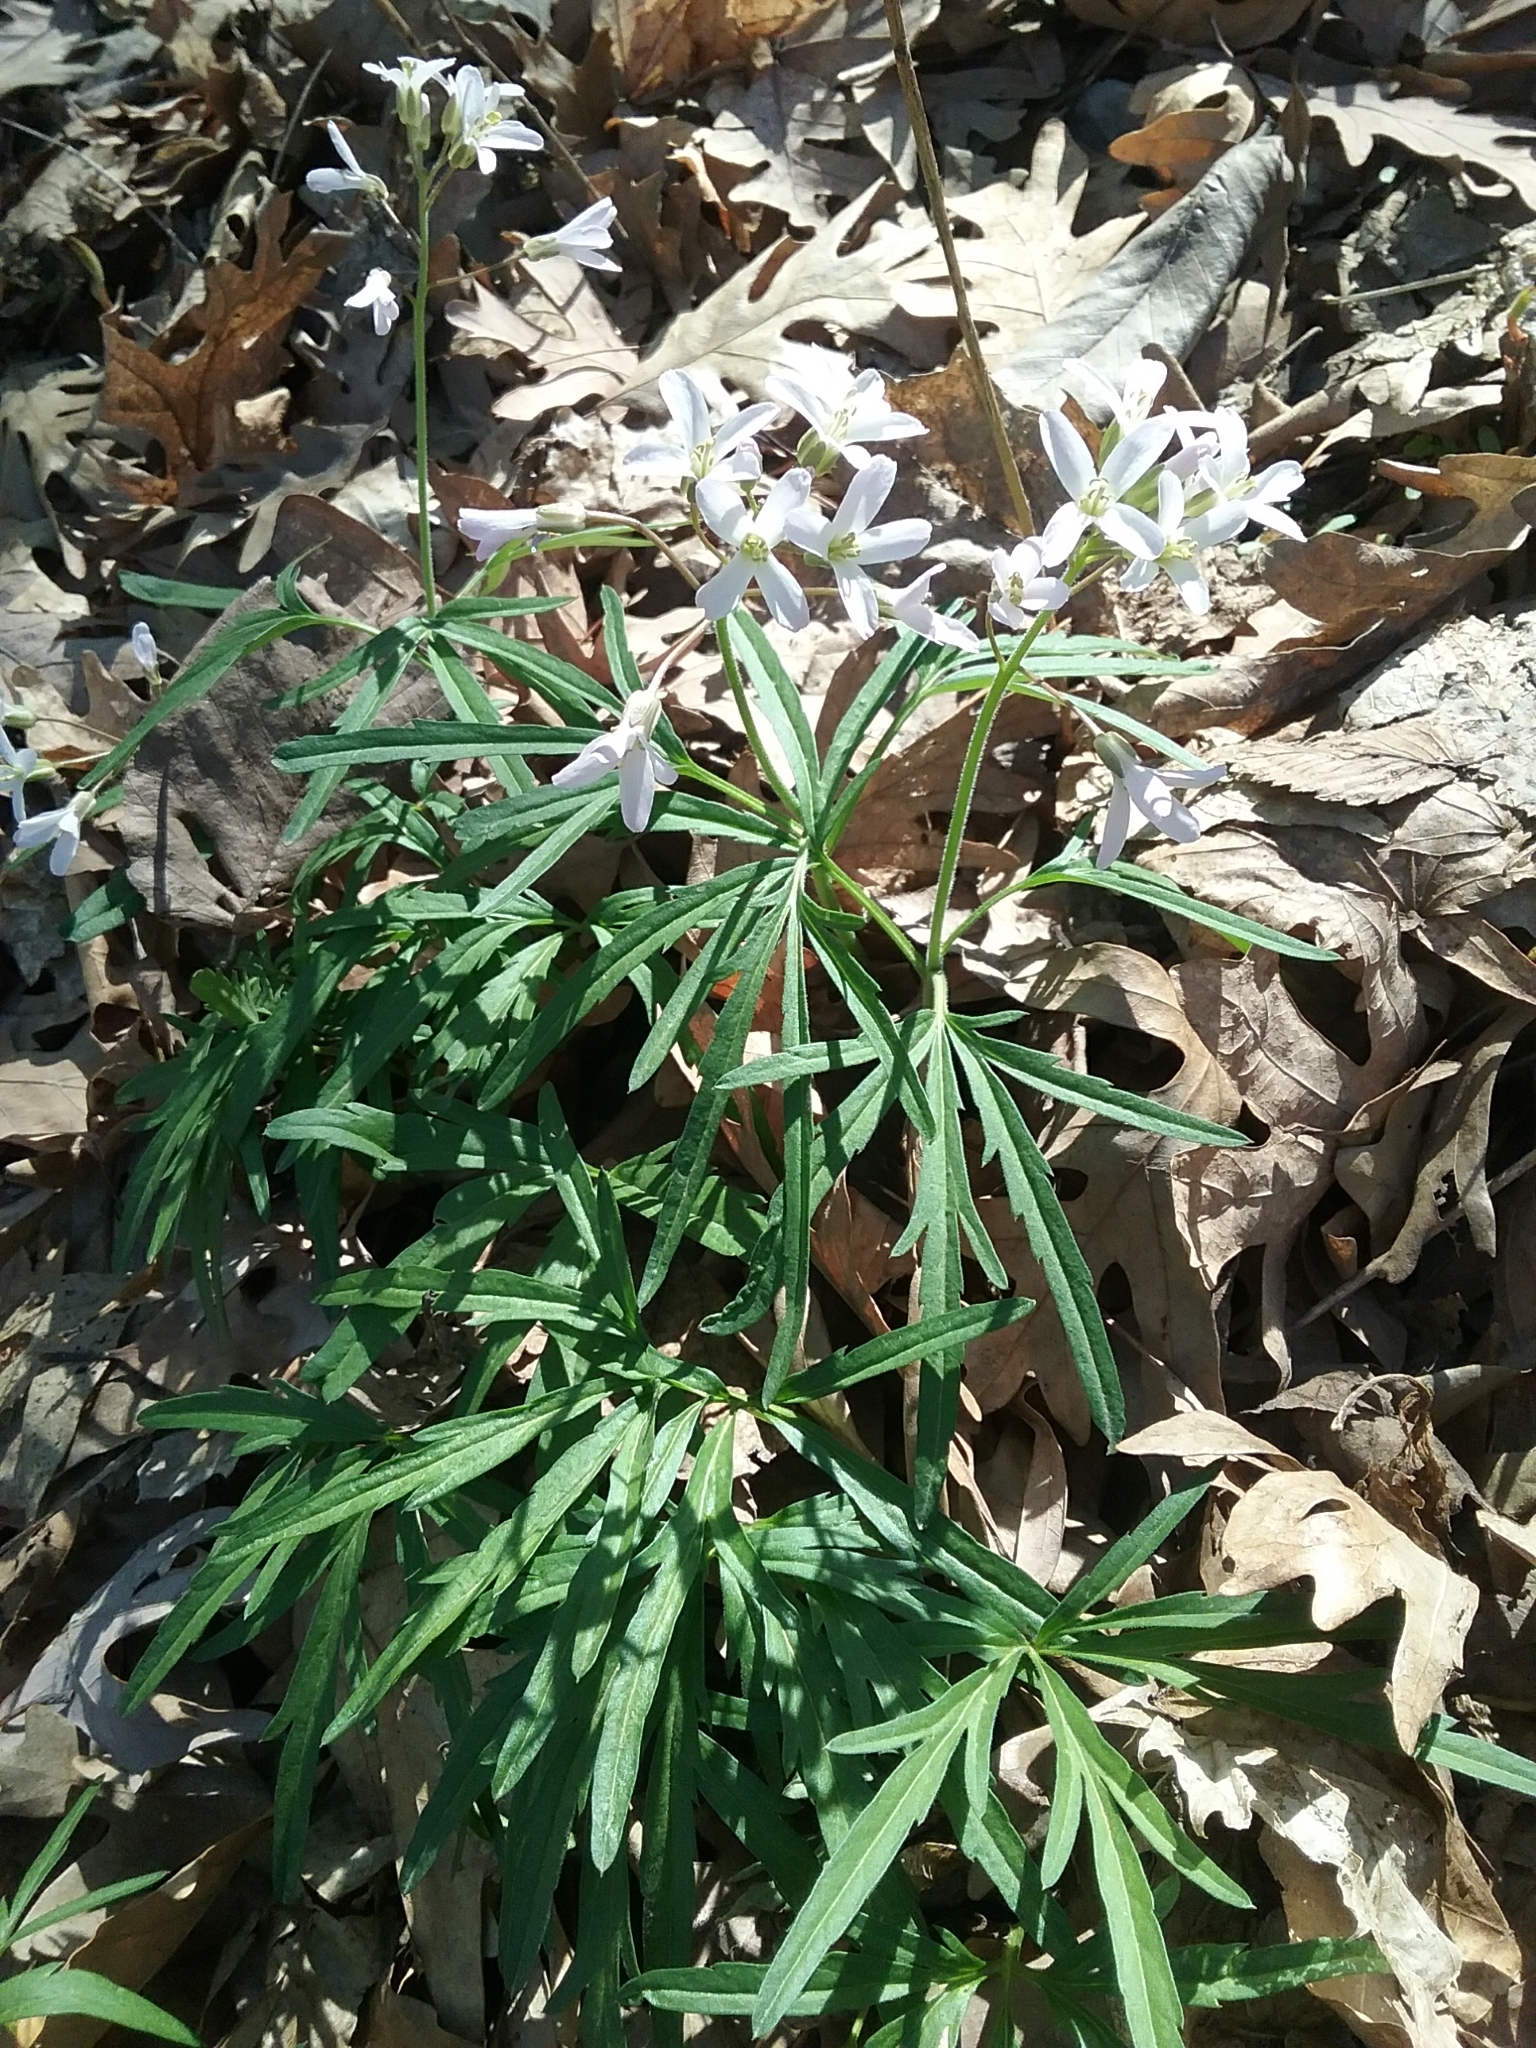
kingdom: Plantae
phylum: Tracheophyta
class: Magnoliopsida
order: Brassicales
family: Brassicaceae
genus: Cardamine
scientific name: Cardamine concatenata
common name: Cut-leaf toothcup
